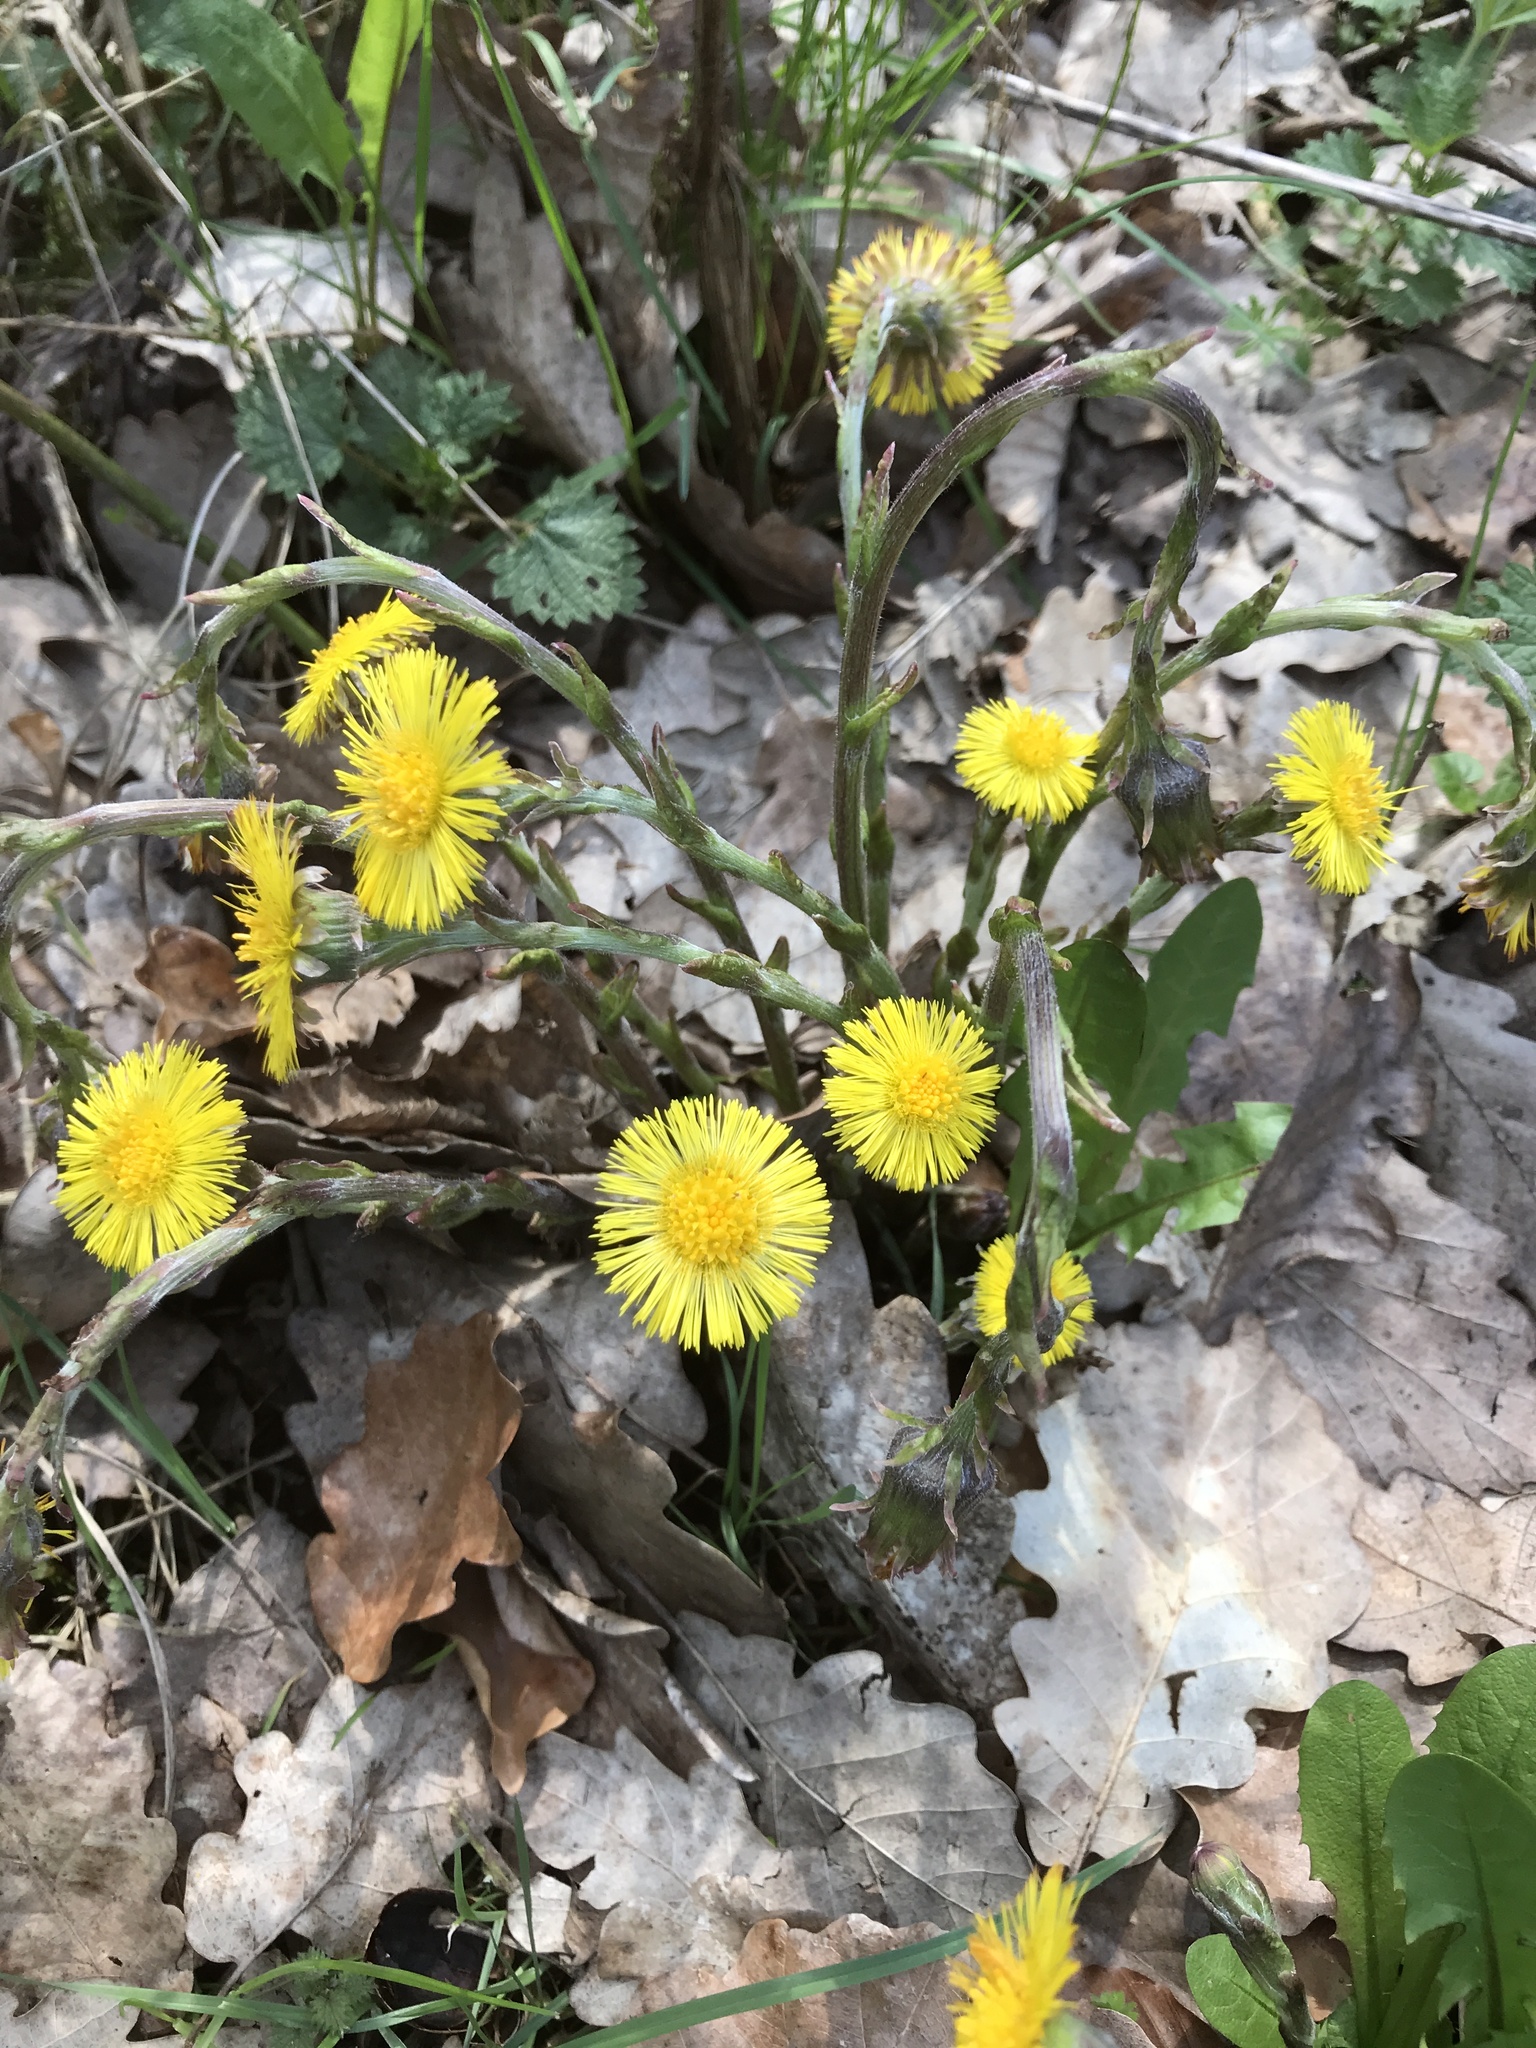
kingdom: Plantae
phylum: Tracheophyta
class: Magnoliopsida
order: Asterales
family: Asteraceae
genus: Tussilago
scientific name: Tussilago farfara
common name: Coltsfoot
